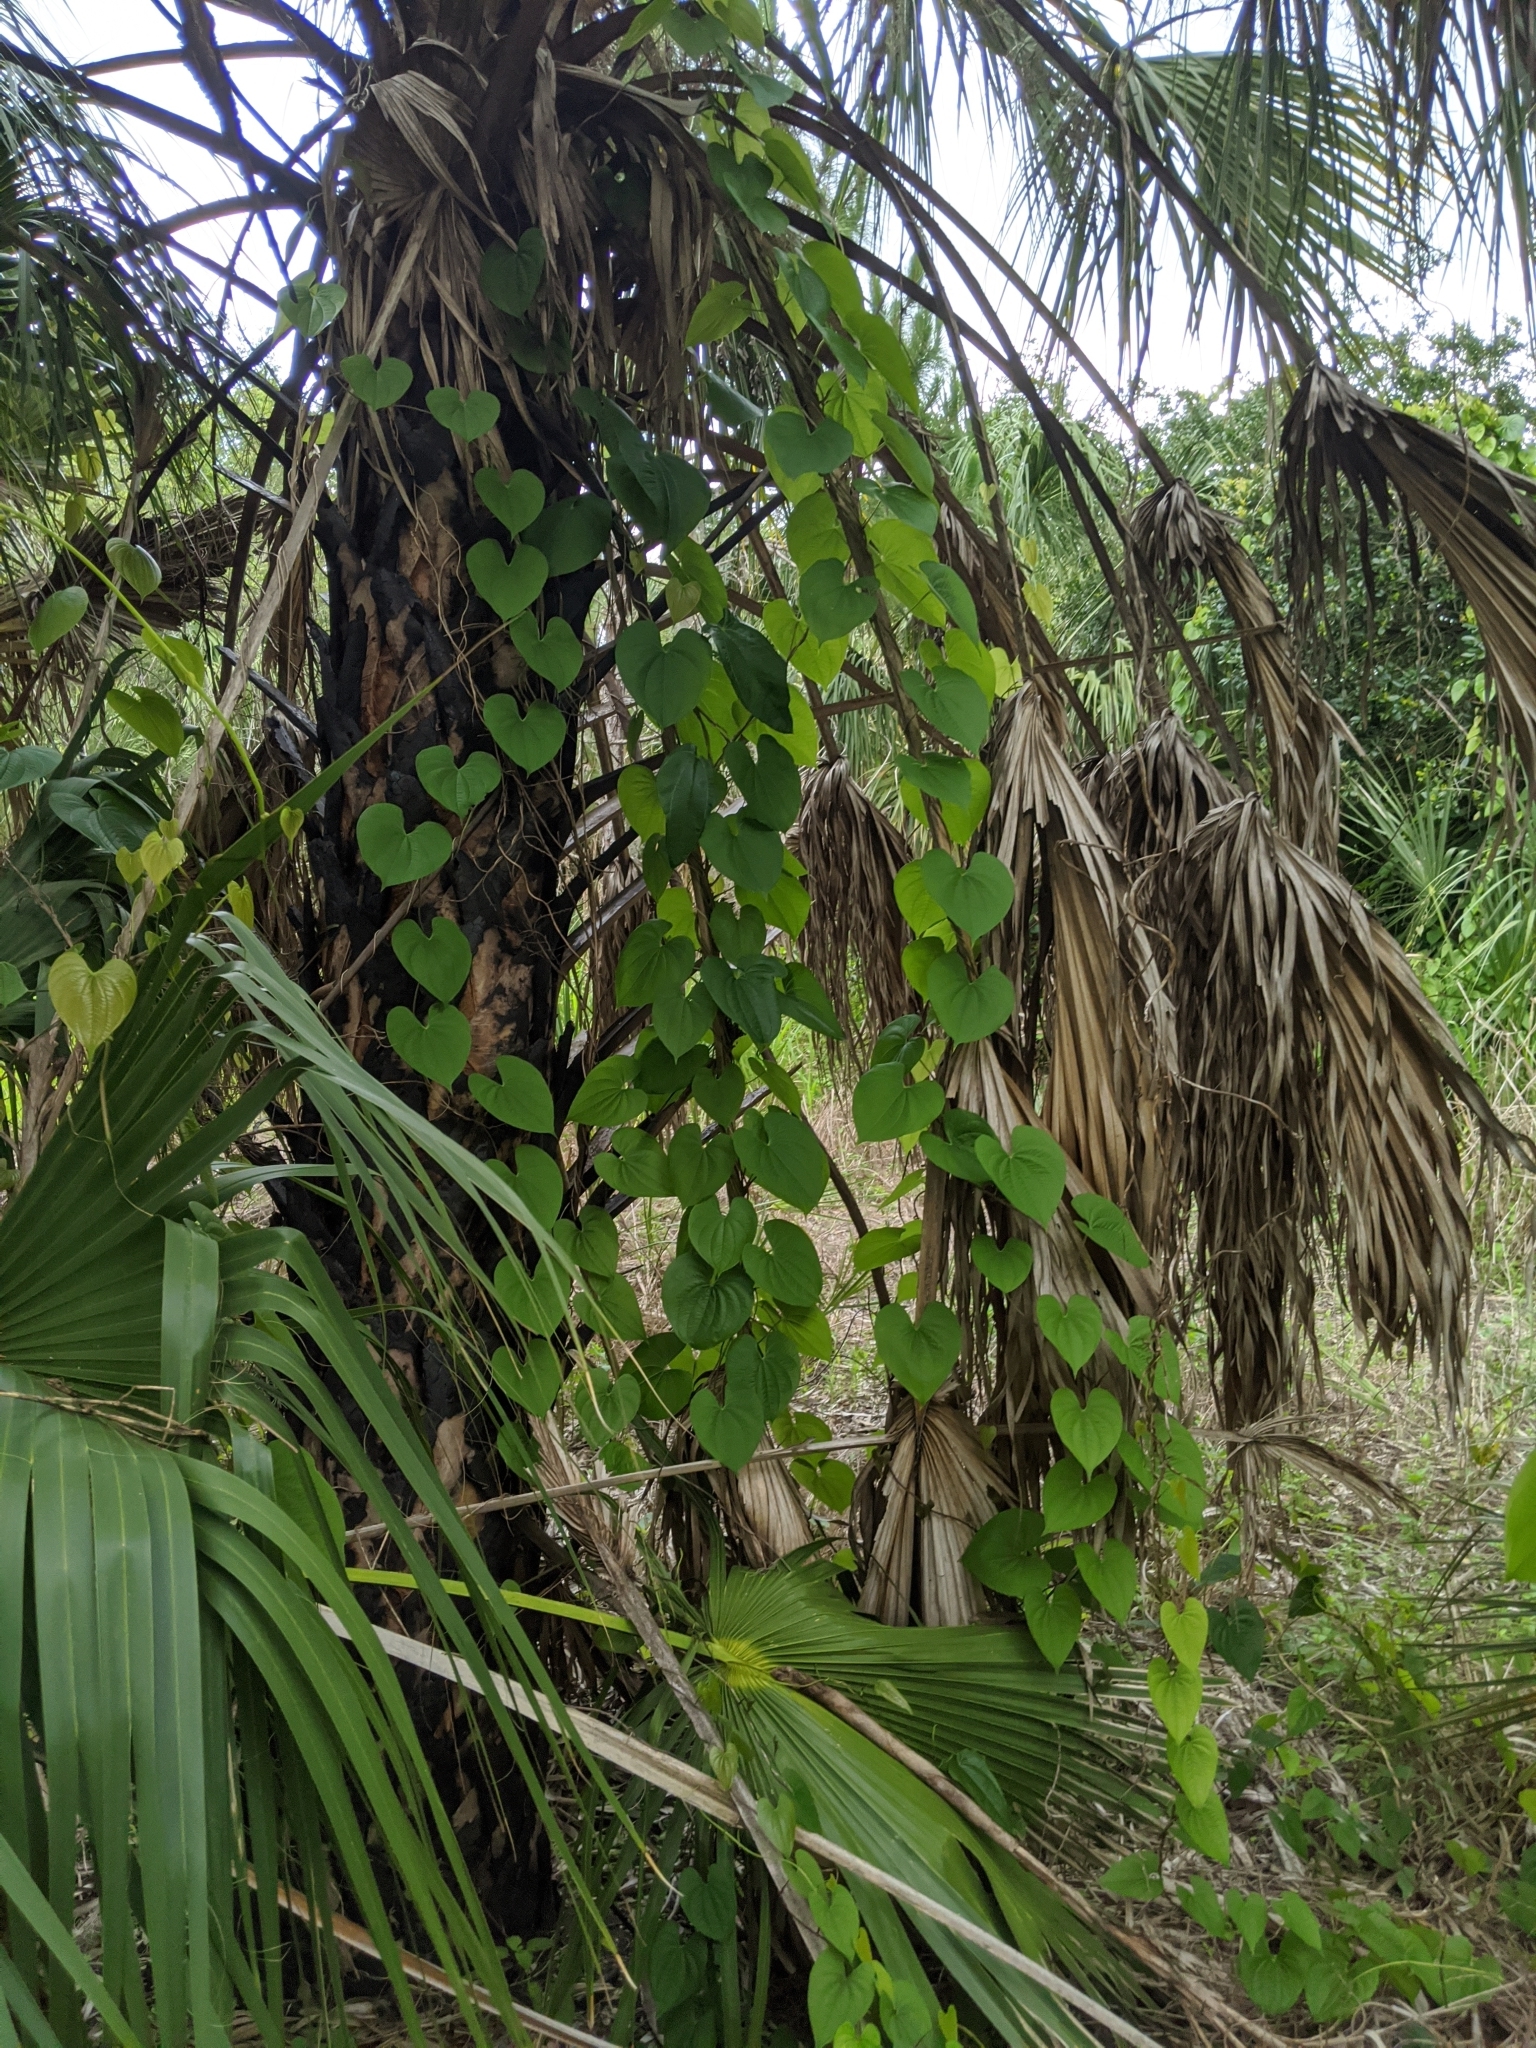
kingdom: Plantae
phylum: Tracheophyta
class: Liliopsida
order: Dioscoreales
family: Dioscoreaceae
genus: Dioscorea
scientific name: Dioscorea bulbifera
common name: Air yam
